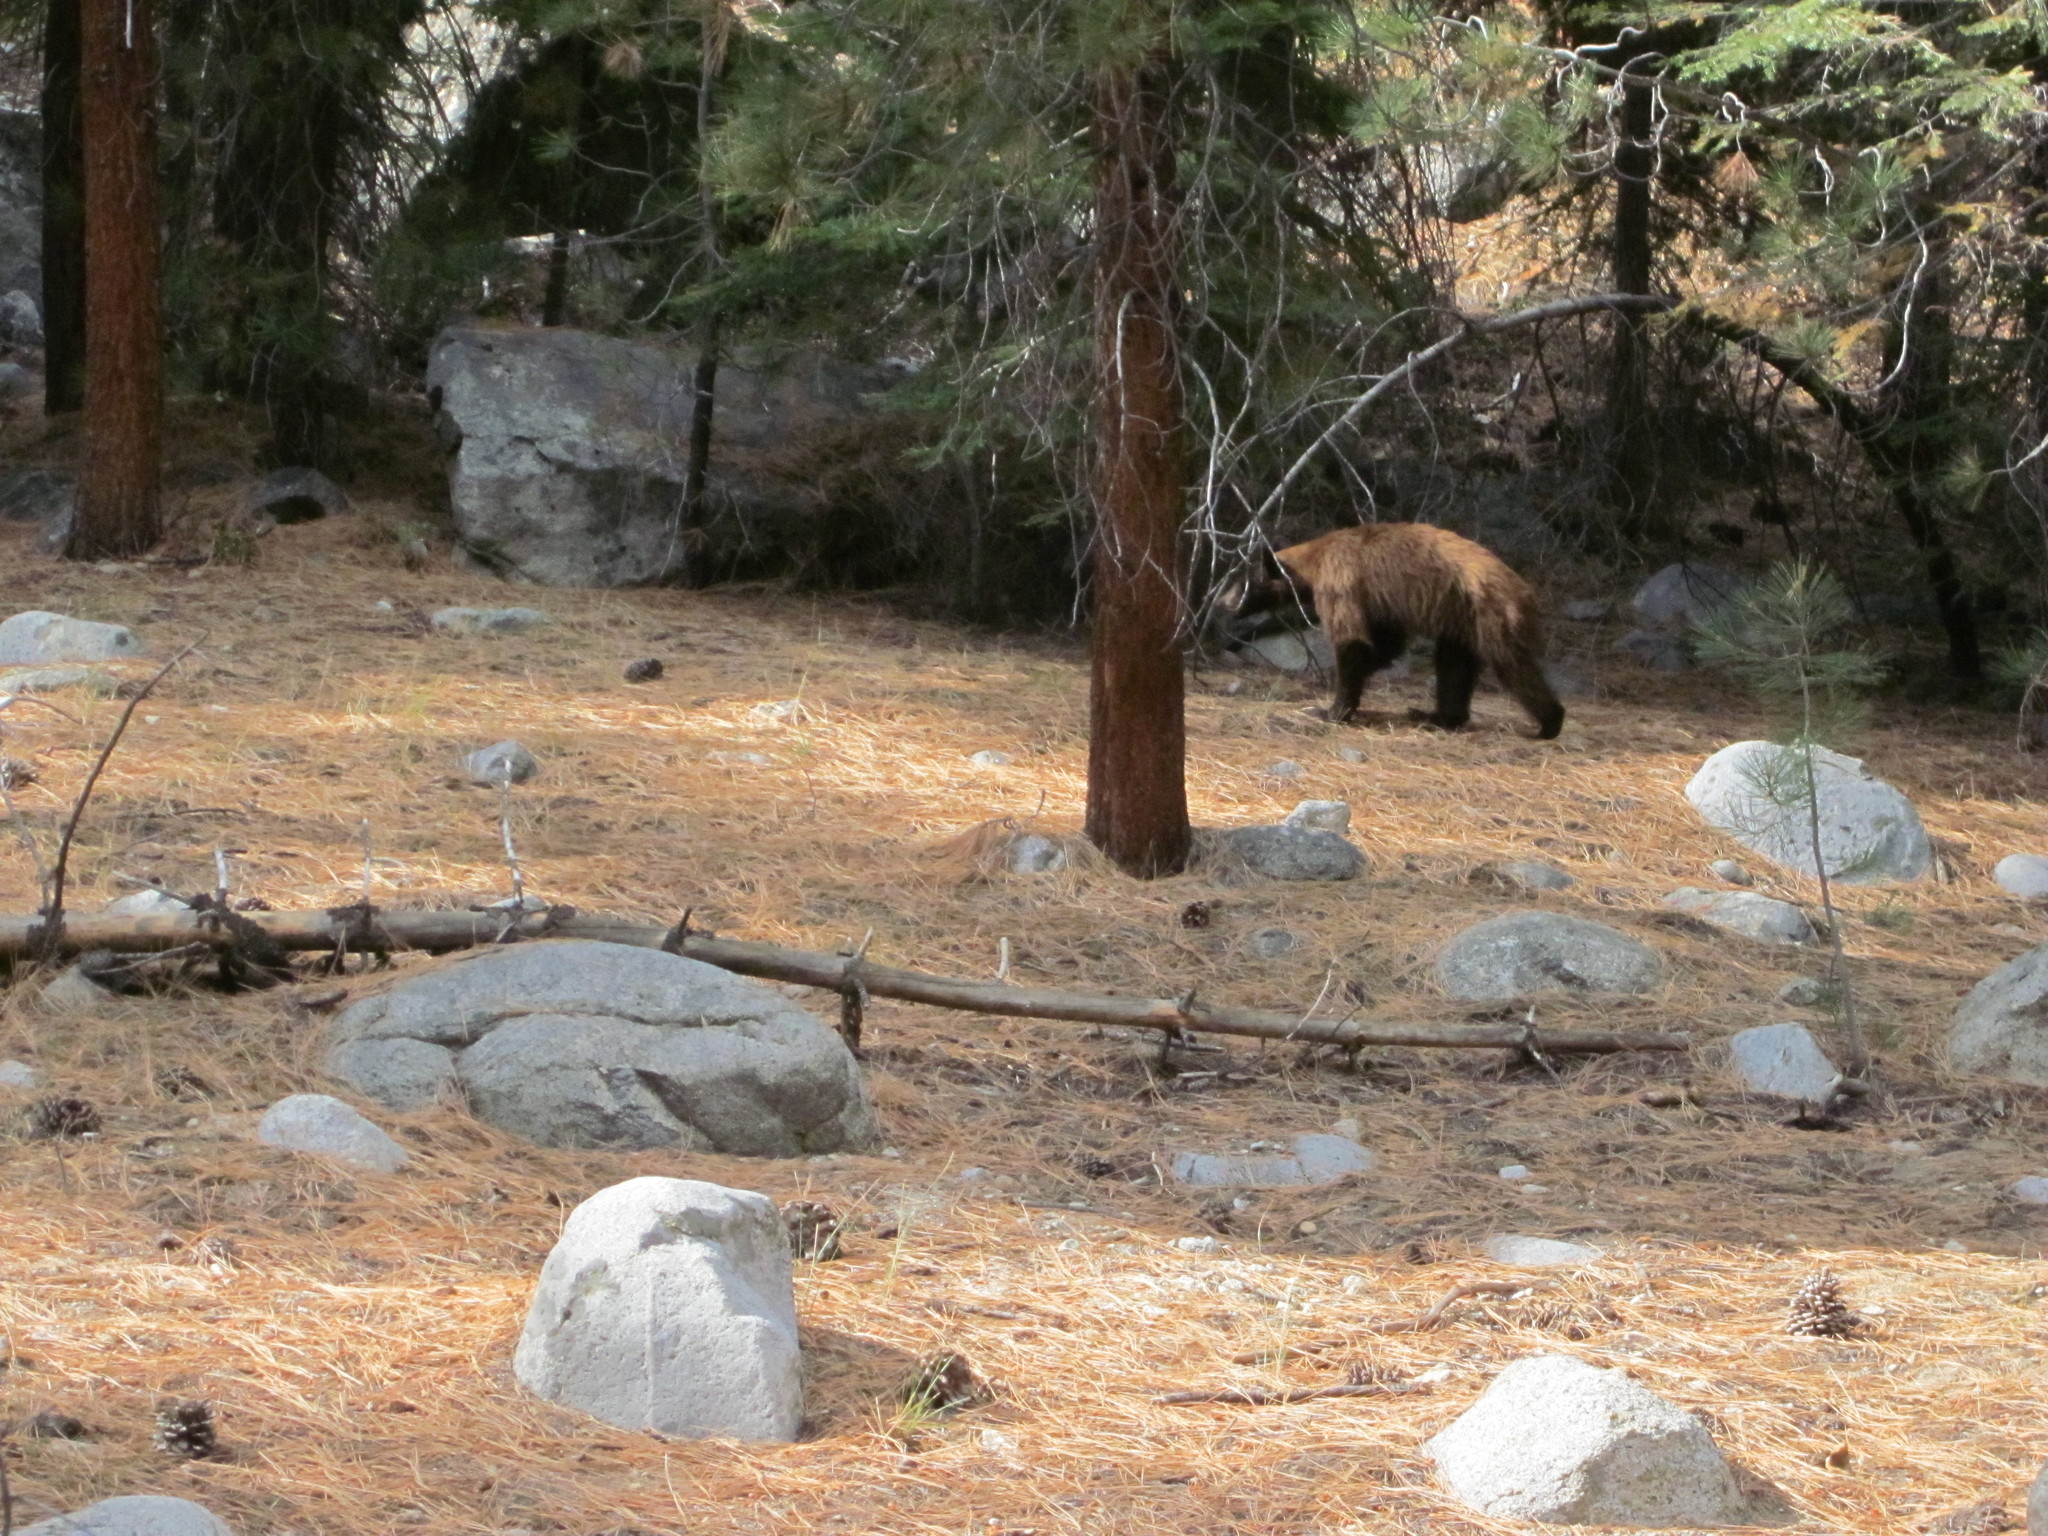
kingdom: Animalia
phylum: Chordata
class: Mammalia
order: Carnivora
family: Ursidae
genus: Ursus
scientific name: Ursus americanus
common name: American black bear
